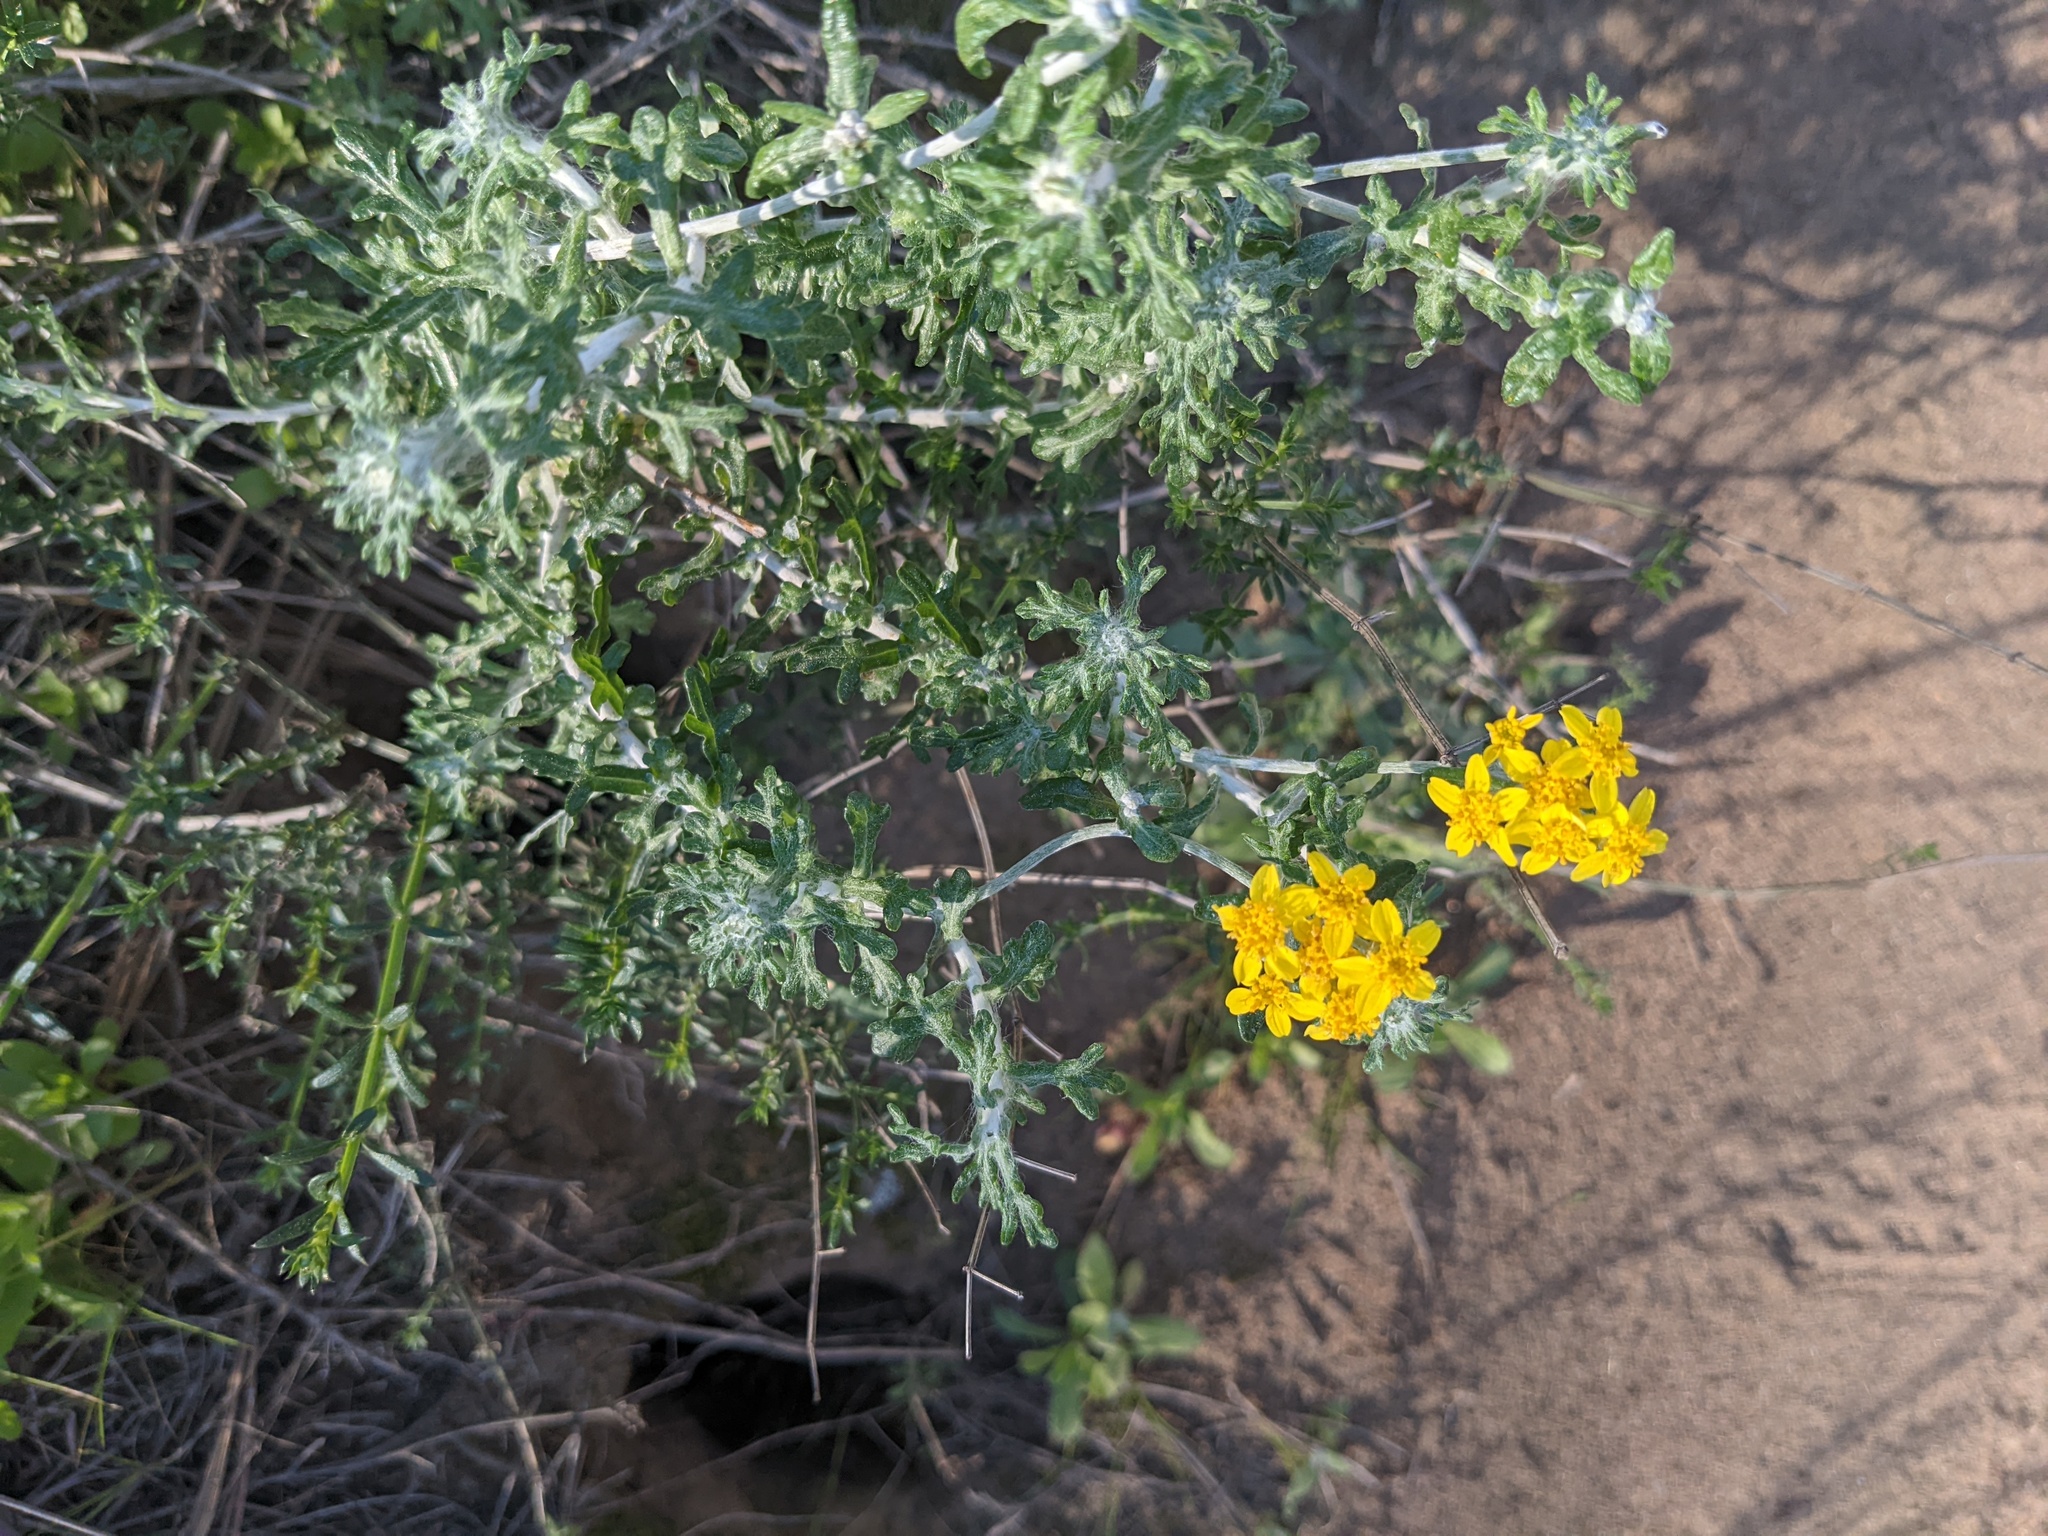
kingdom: Plantae
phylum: Tracheophyta
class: Magnoliopsida
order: Asterales
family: Asteraceae
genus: Eriophyllum
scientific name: Eriophyllum confertiflorum
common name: Golden-yarrow
